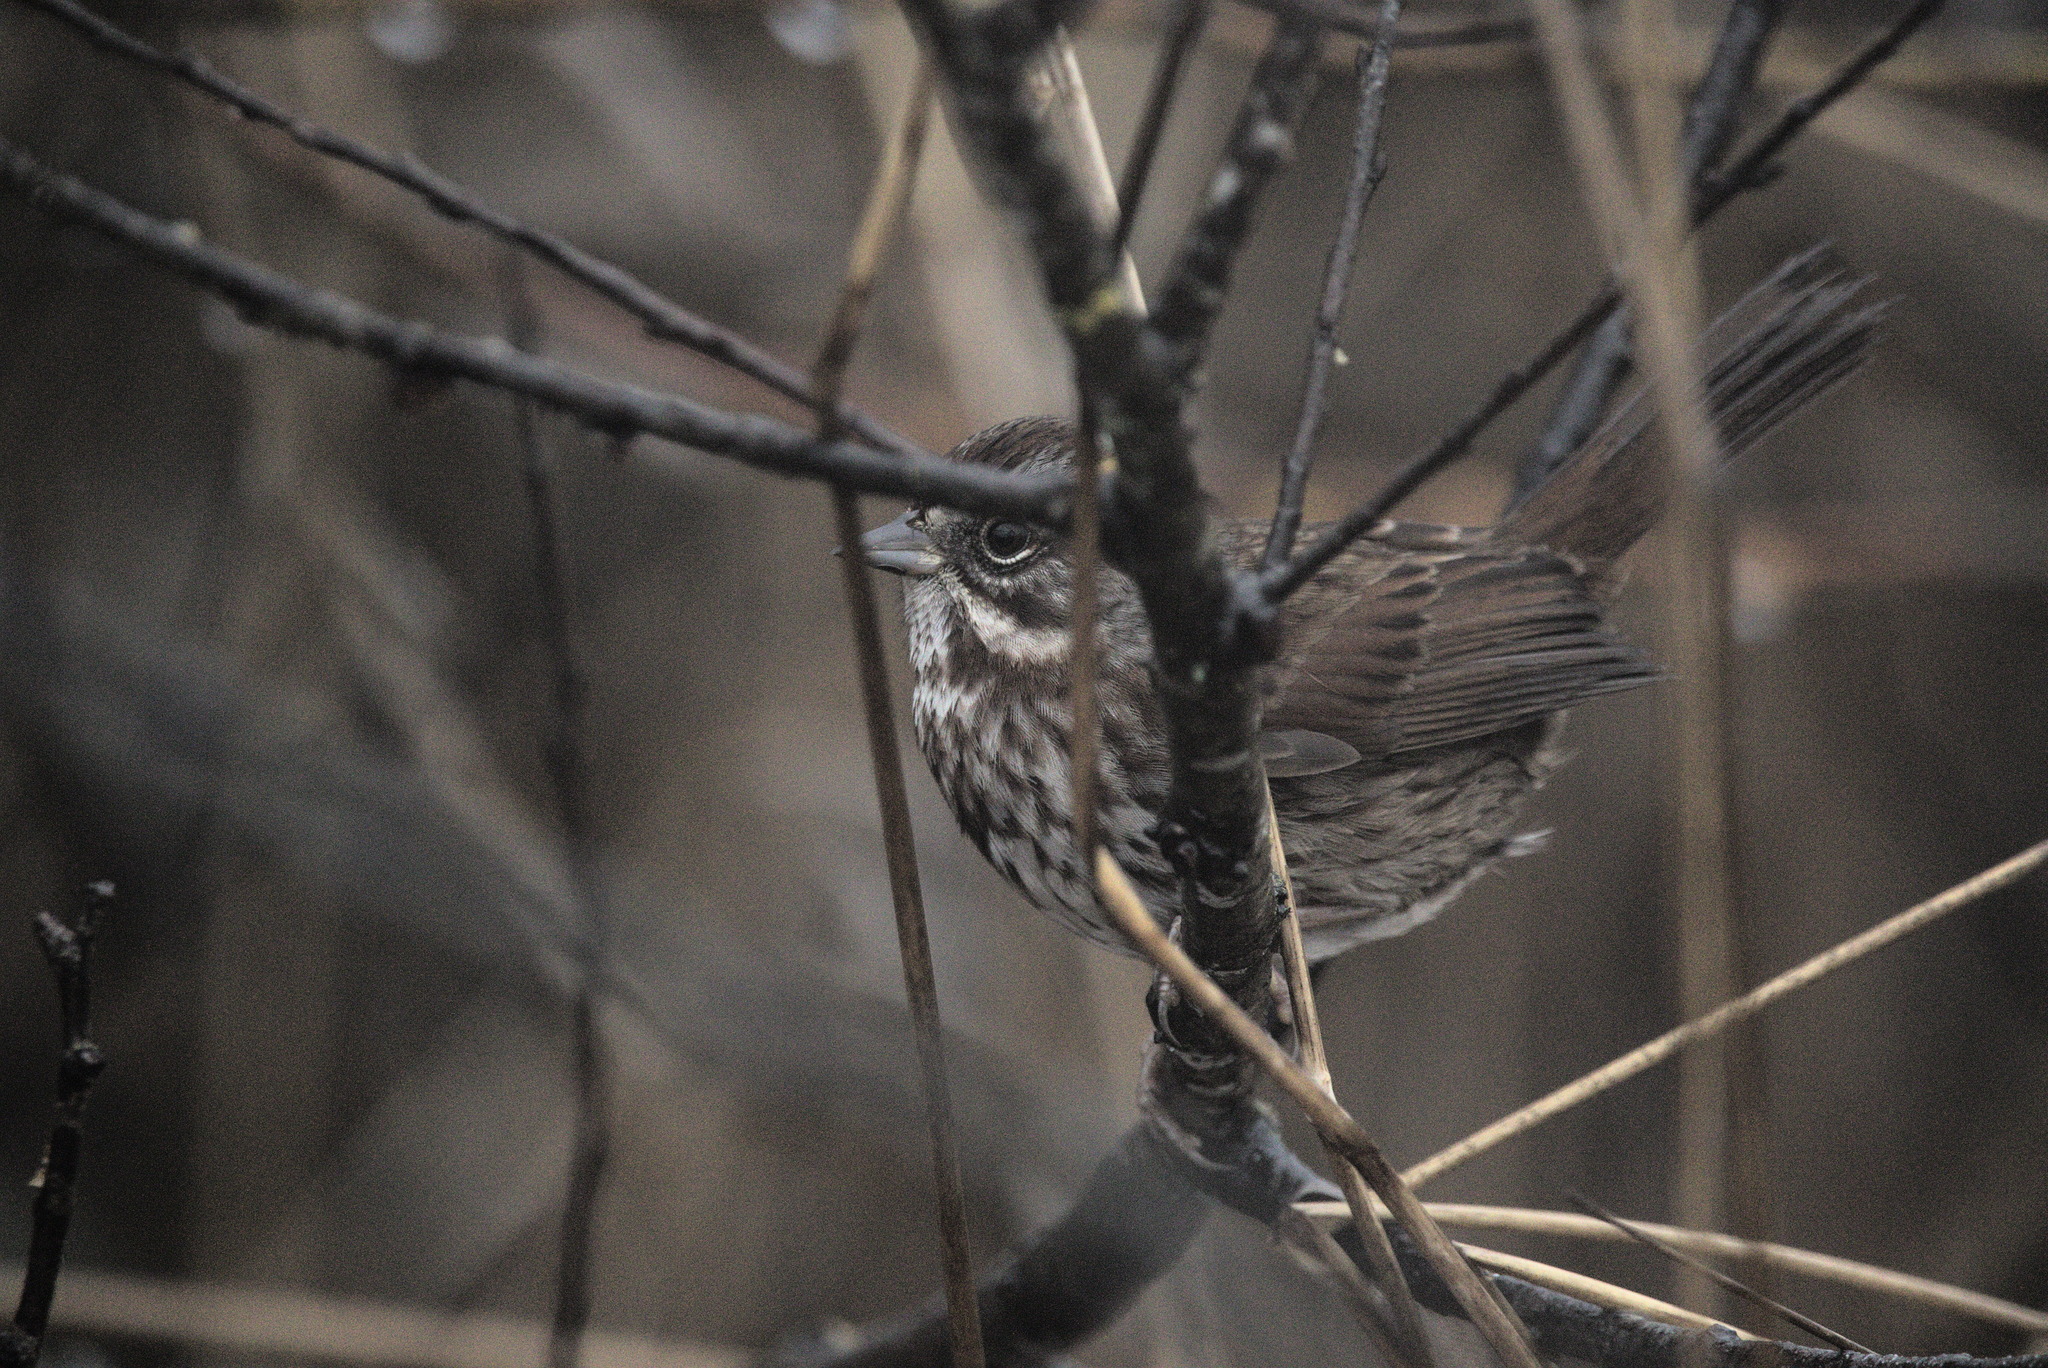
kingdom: Animalia
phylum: Chordata
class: Aves
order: Passeriformes
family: Passerellidae
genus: Melospiza
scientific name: Melospiza melodia
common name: Song sparrow
